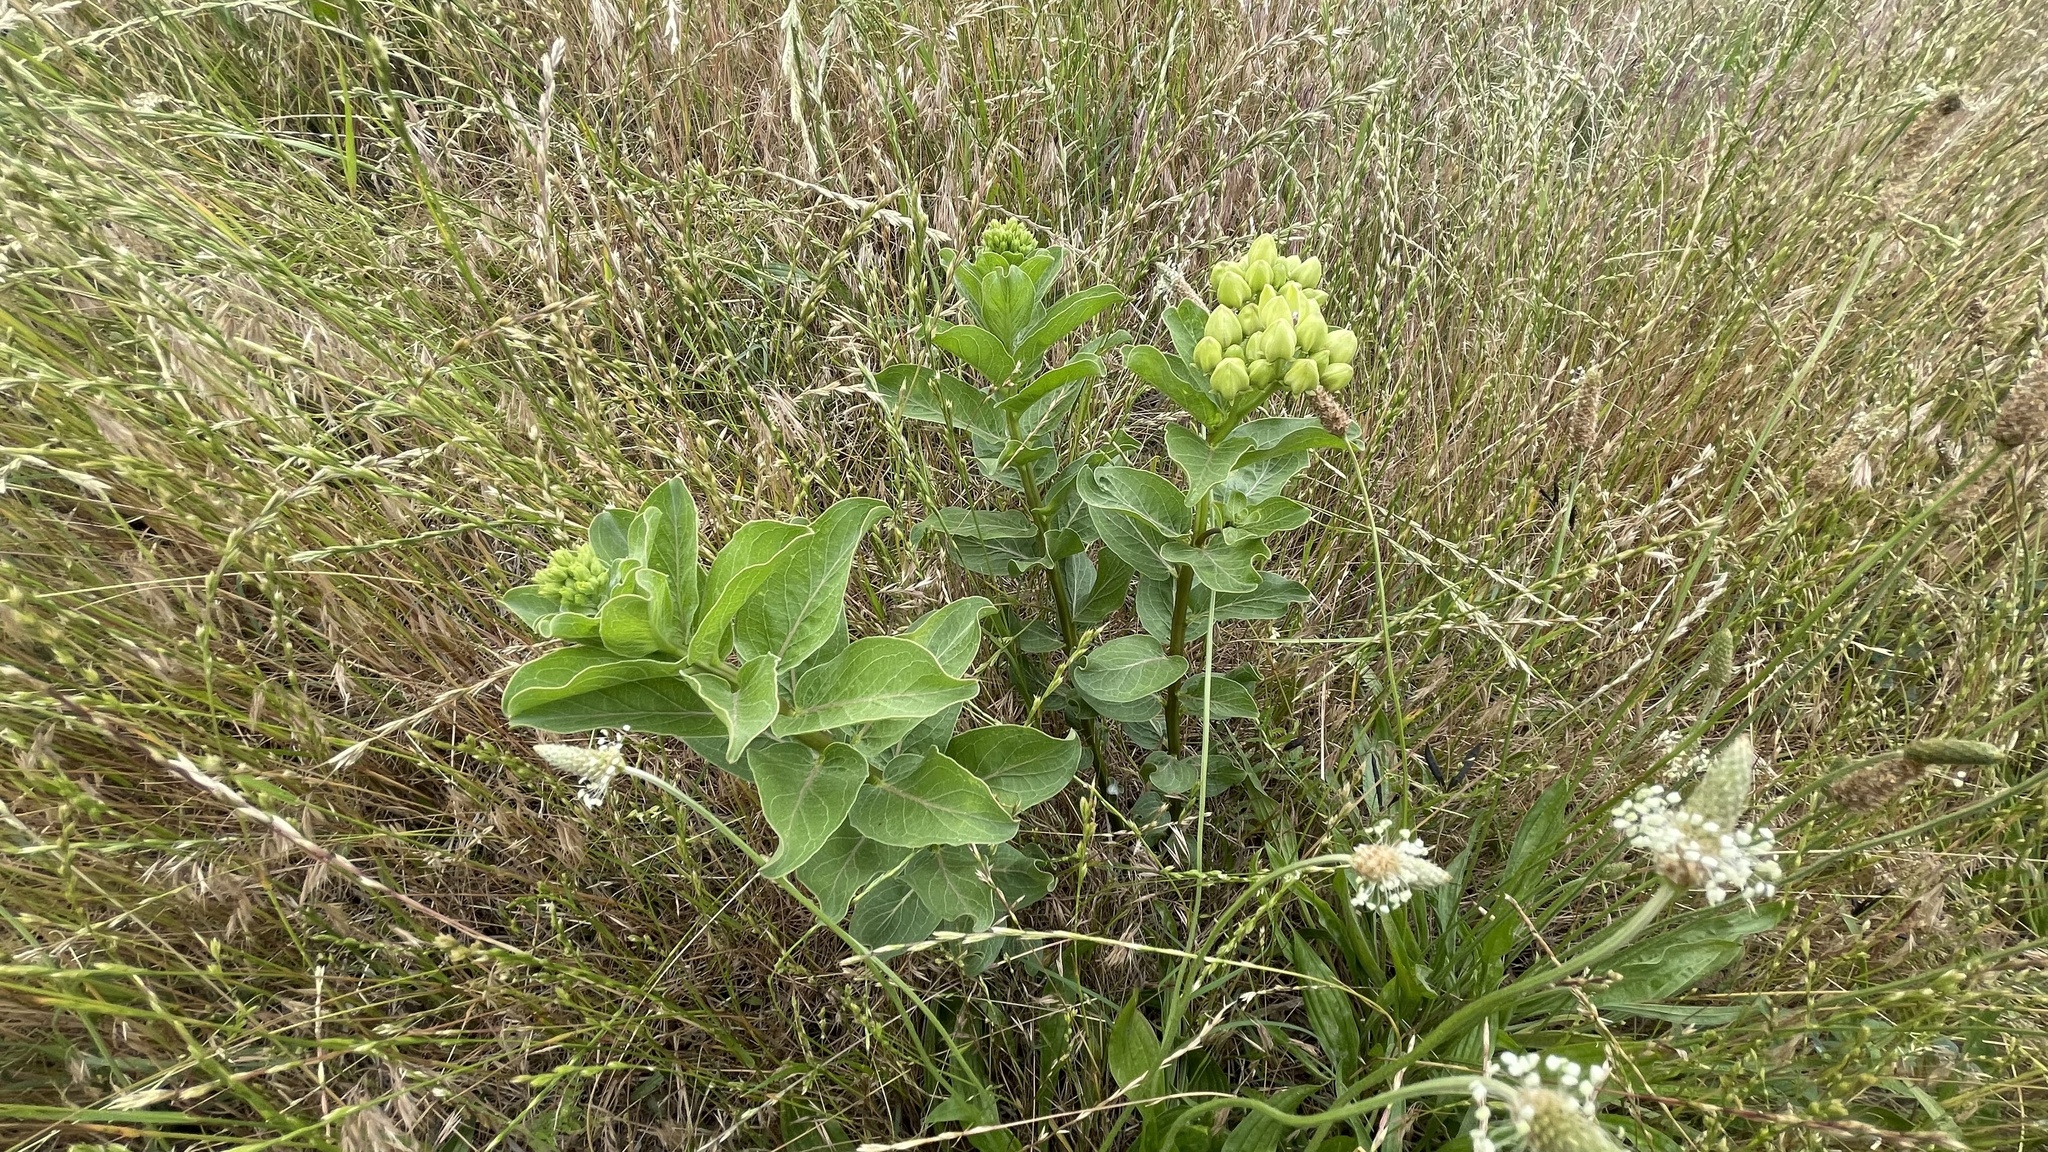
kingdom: Plantae
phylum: Tracheophyta
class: Magnoliopsida
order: Gentianales
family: Apocynaceae
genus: Asclepias
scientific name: Asclepias viridis
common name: Antelope-horns
